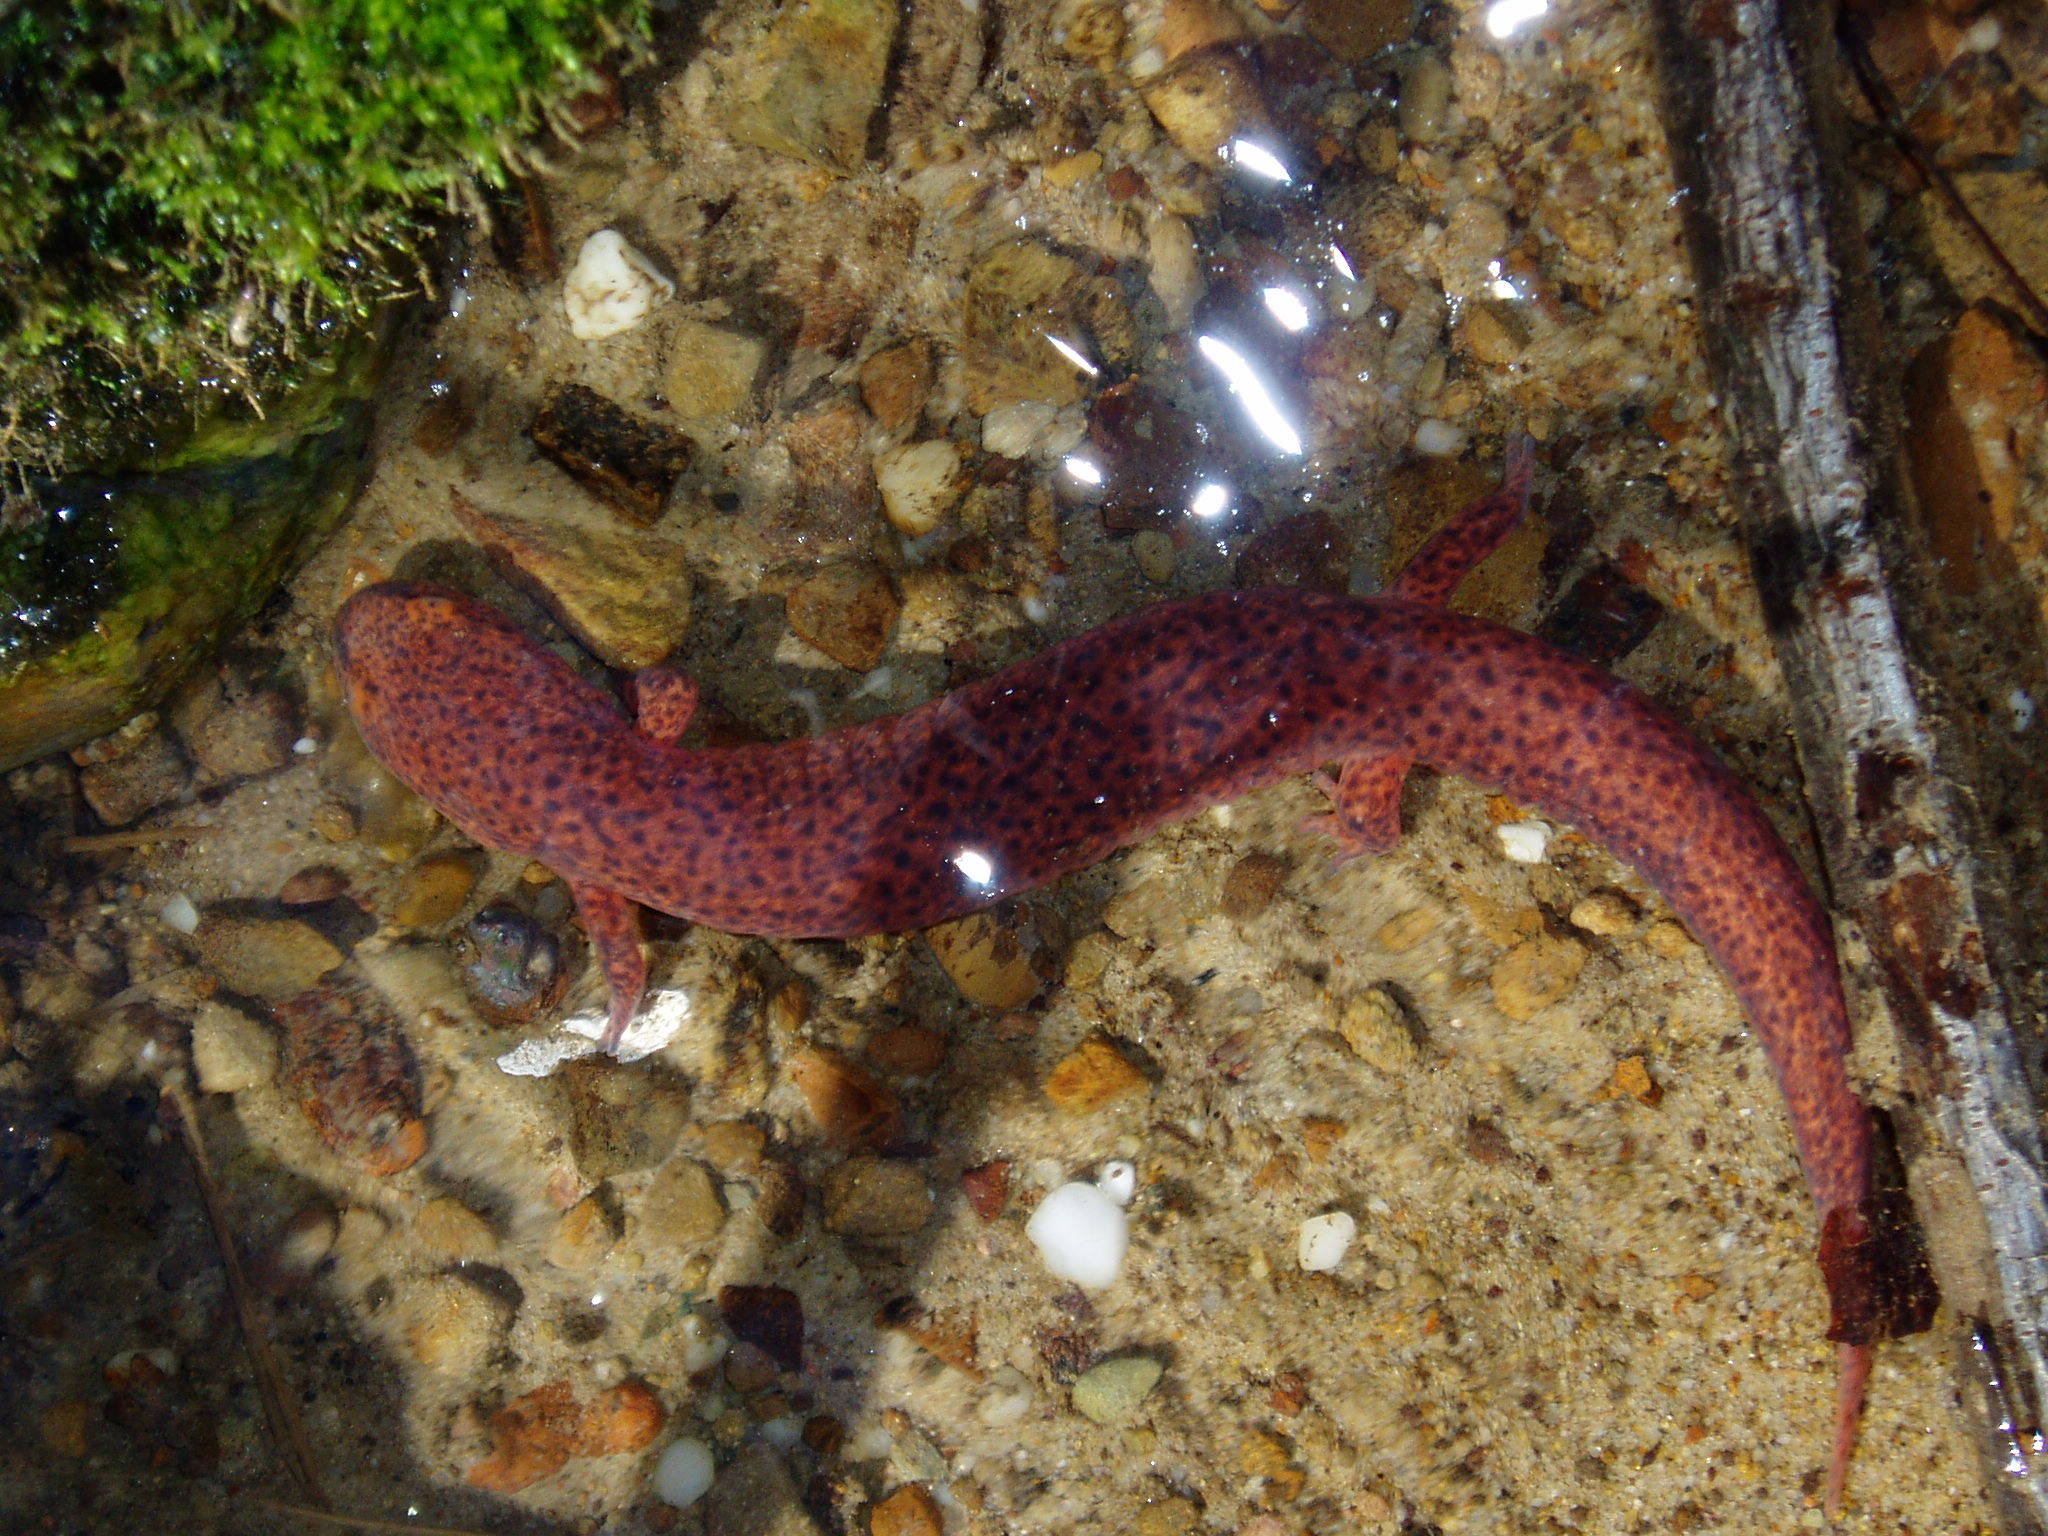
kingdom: Animalia
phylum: Chordata
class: Amphibia
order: Caudata
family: Plethodontidae
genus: Pseudotriton
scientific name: Pseudotriton ruber
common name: Red salamander
